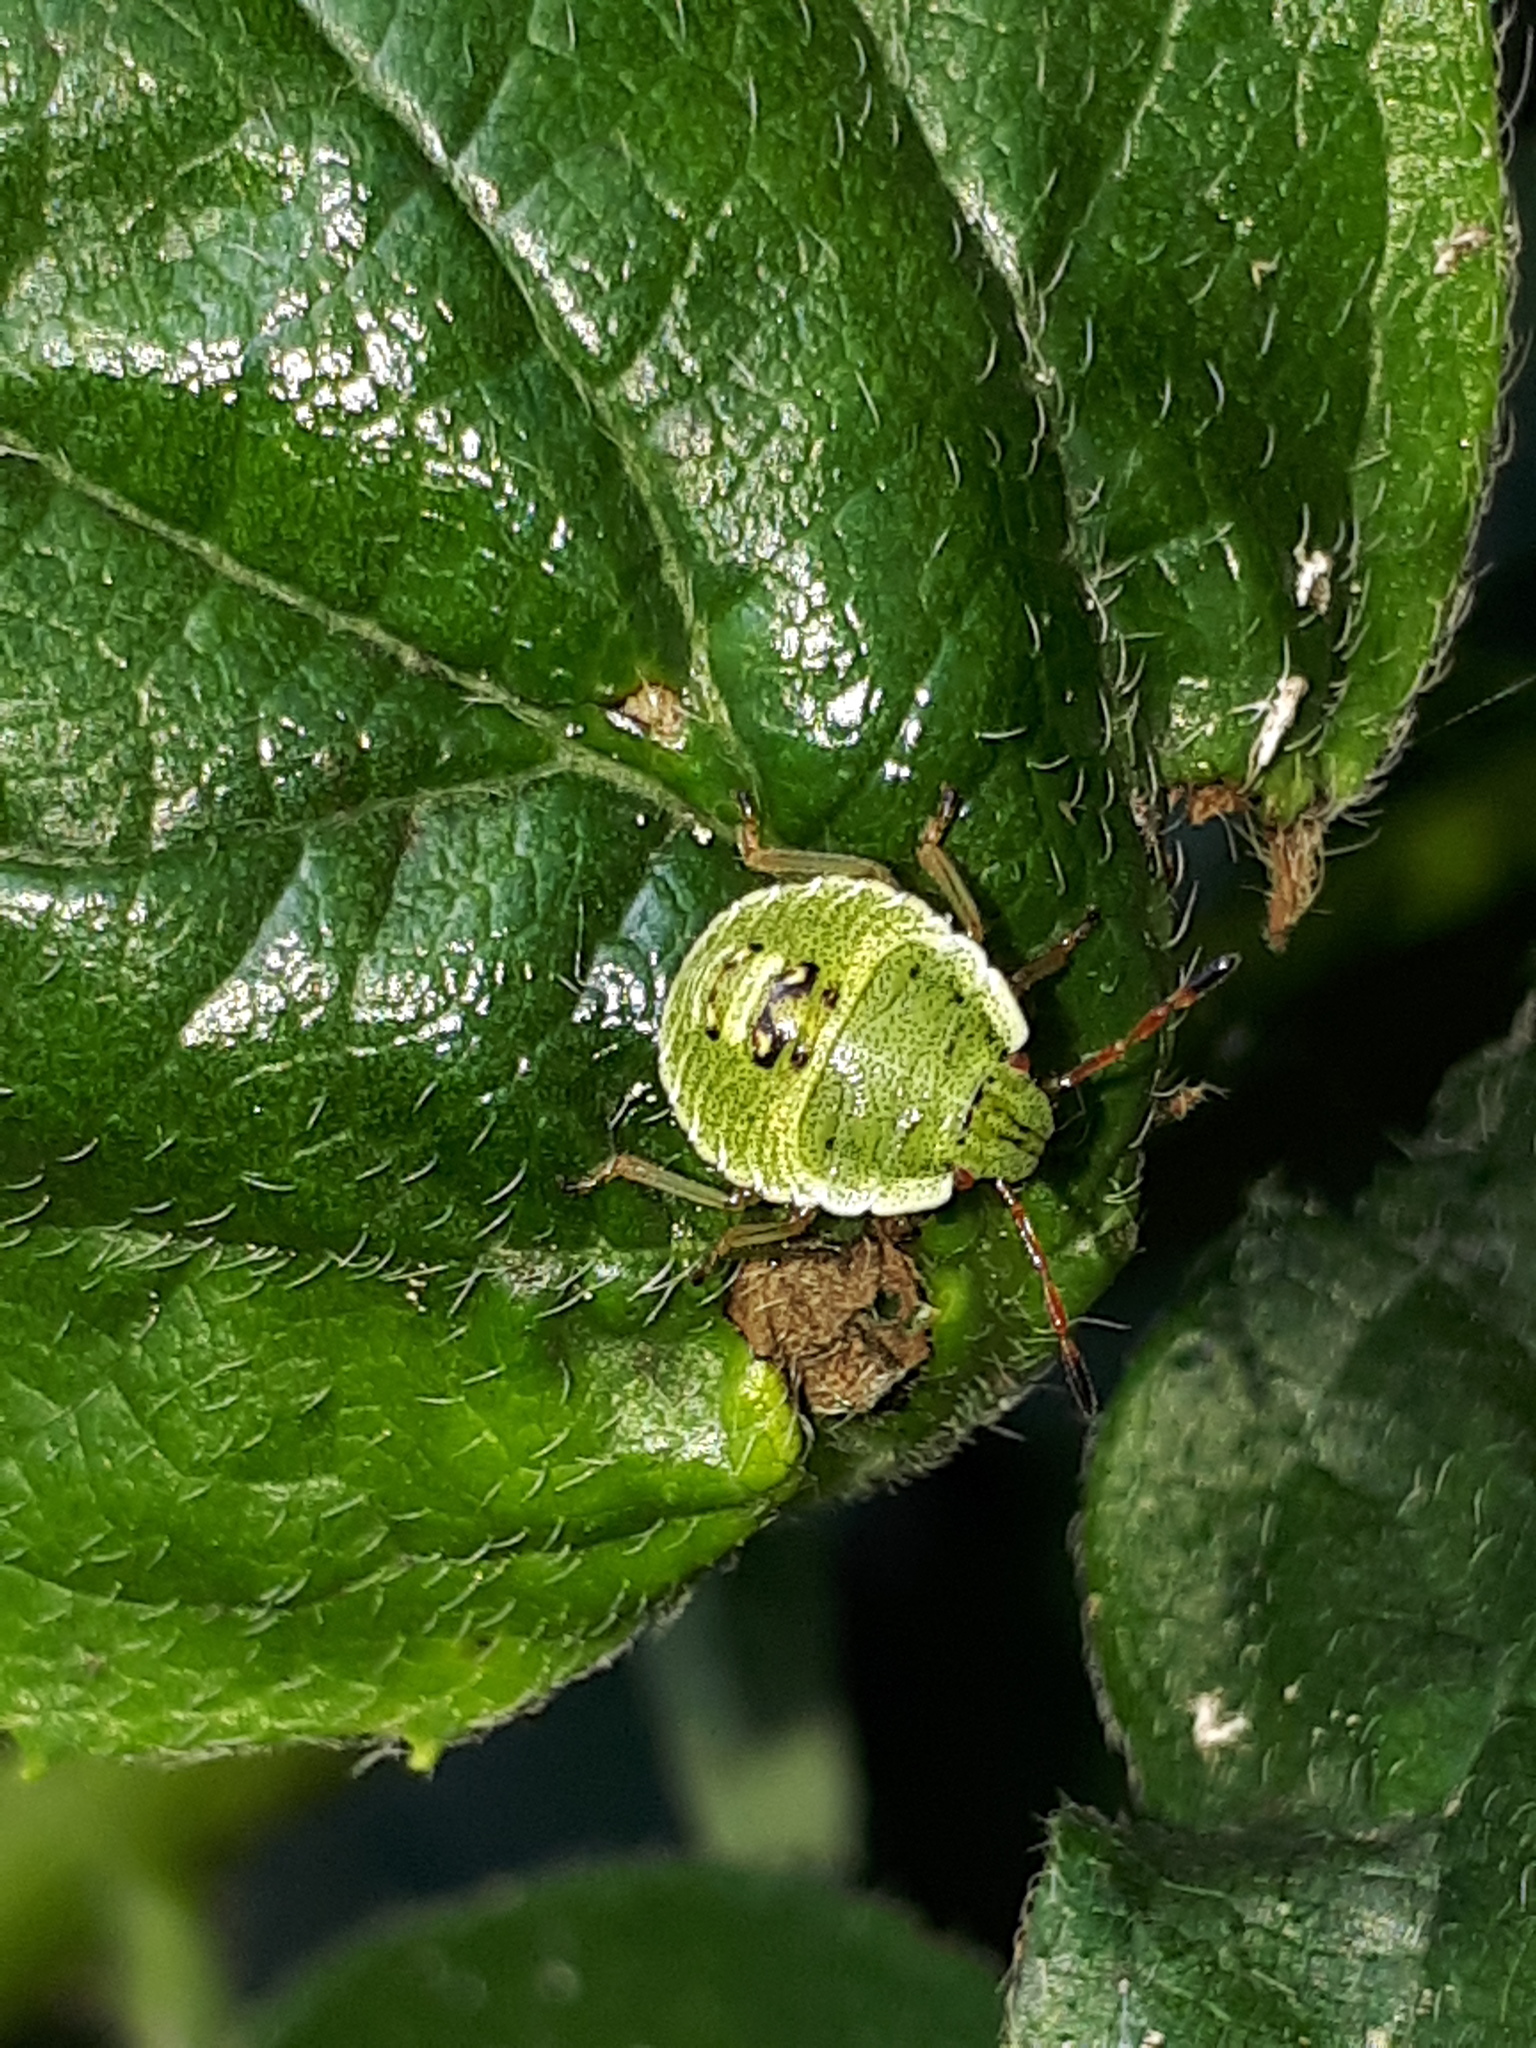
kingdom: Animalia
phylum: Arthropoda
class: Insecta
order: Hemiptera
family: Pentatomidae
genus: Palomena
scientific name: Palomena prasina
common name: Green shieldbug
